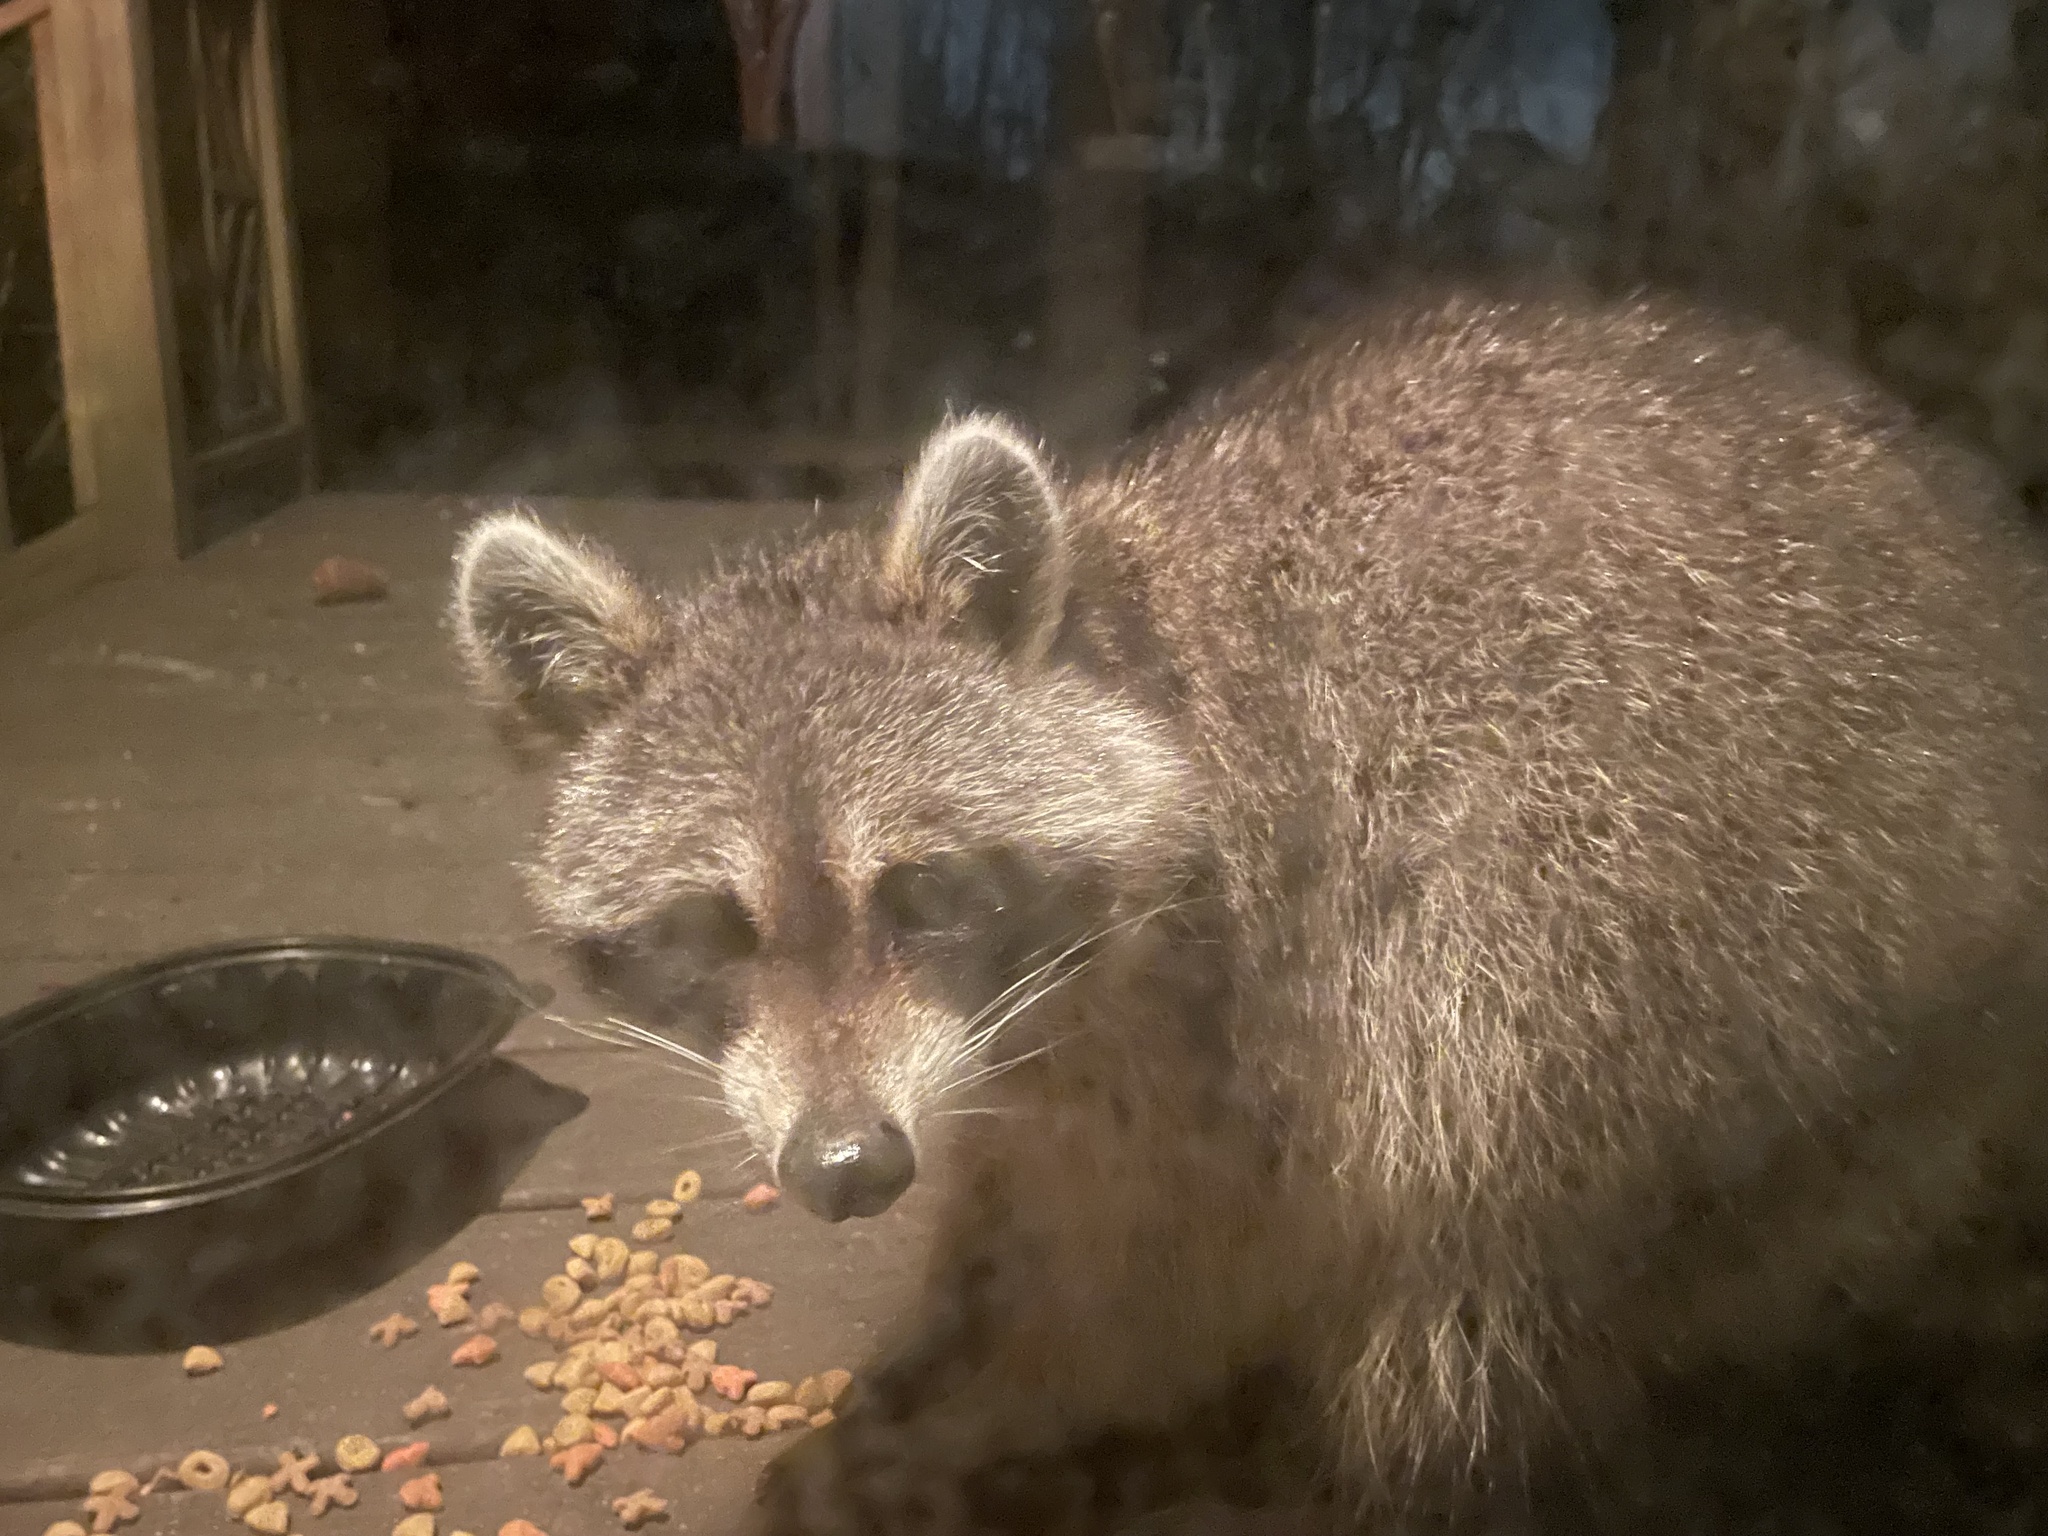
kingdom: Animalia
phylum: Chordata
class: Mammalia
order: Carnivora
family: Procyonidae
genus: Procyon
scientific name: Procyon lotor
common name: Raccoon
